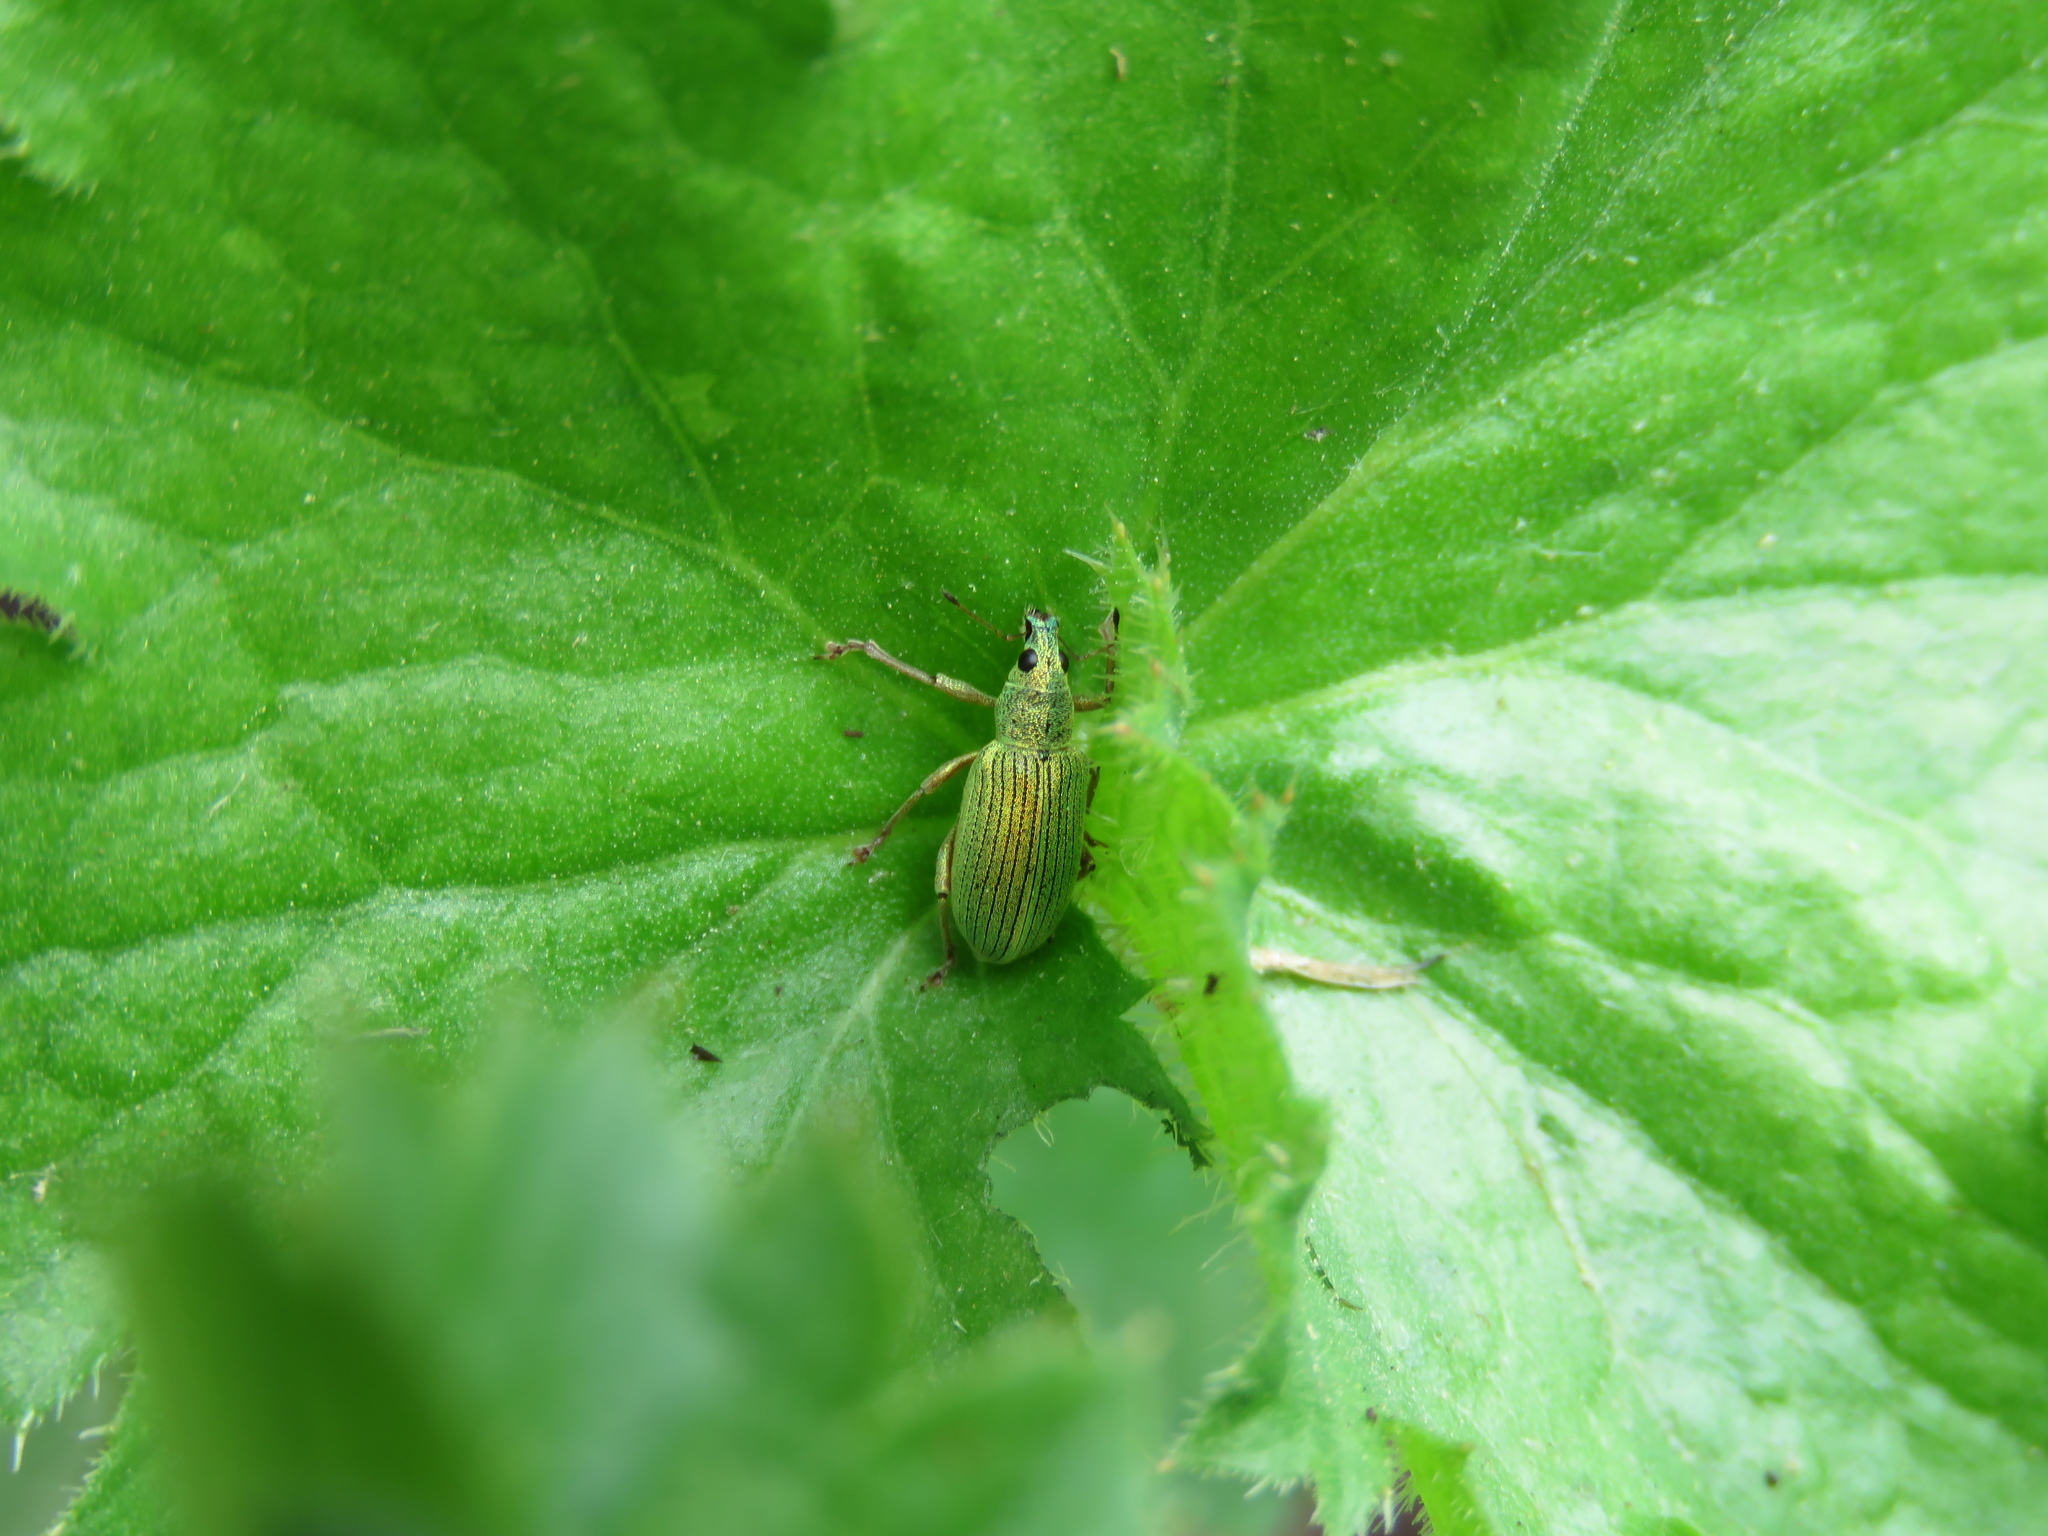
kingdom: Animalia
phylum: Arthropoda
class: Insecta
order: Coleoptera
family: Curculionidae
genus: Polydrusus
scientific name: Polydrusus formosus
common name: Weevil
